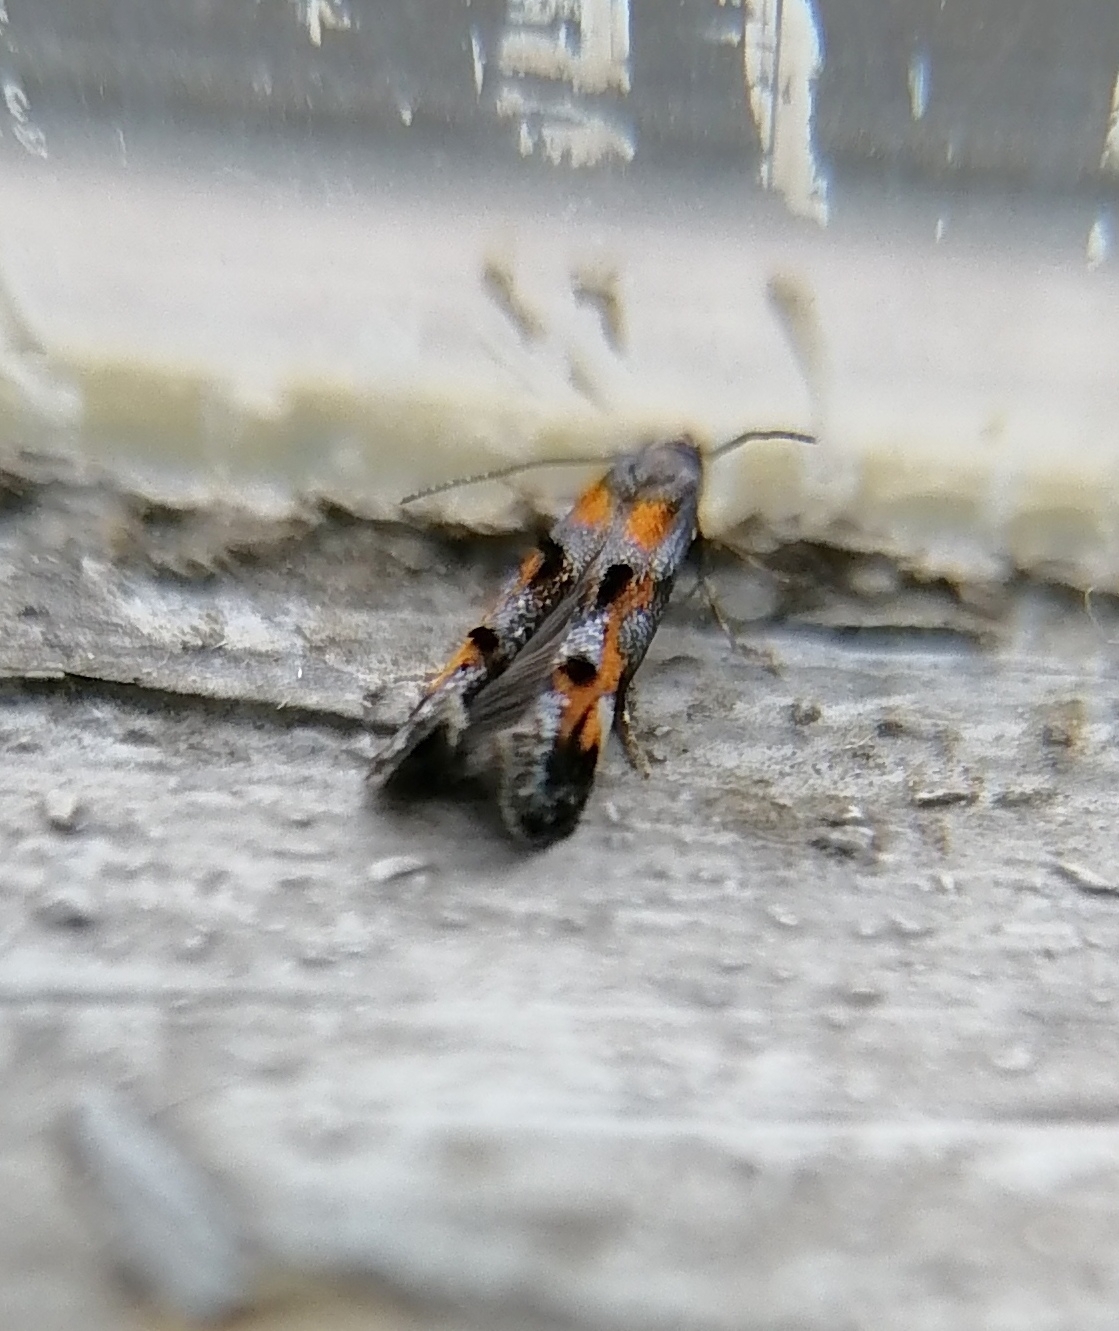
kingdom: Animalia
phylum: Arthropoda
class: Insecta
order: Lepidoptera
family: Momphidae
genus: Mompha
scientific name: Mompha raschkiella
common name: Little cosmet
